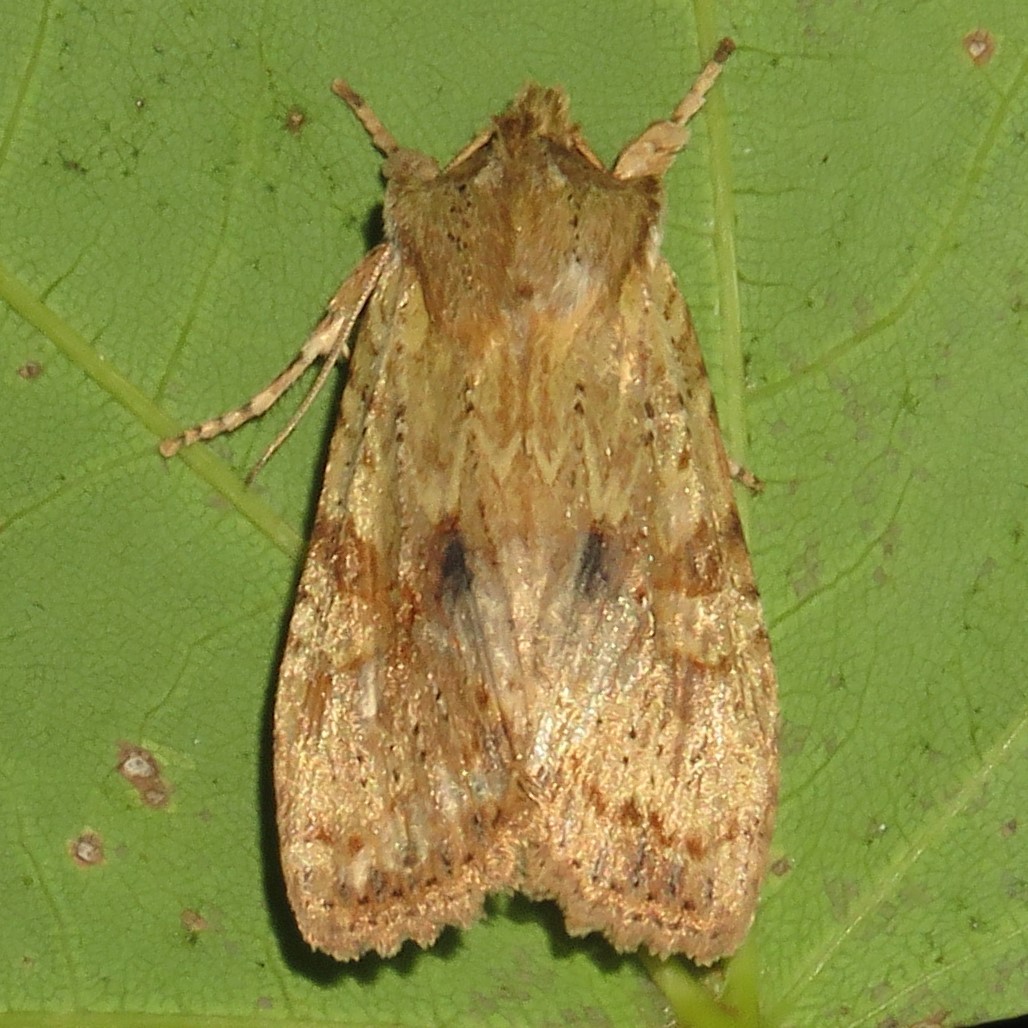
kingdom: Animalia
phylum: Arthropoda
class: Insecta
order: Lepidoptera
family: Noctuidae
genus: Lithophane
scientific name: Lithophane innominata
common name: Nameless pinion moth
